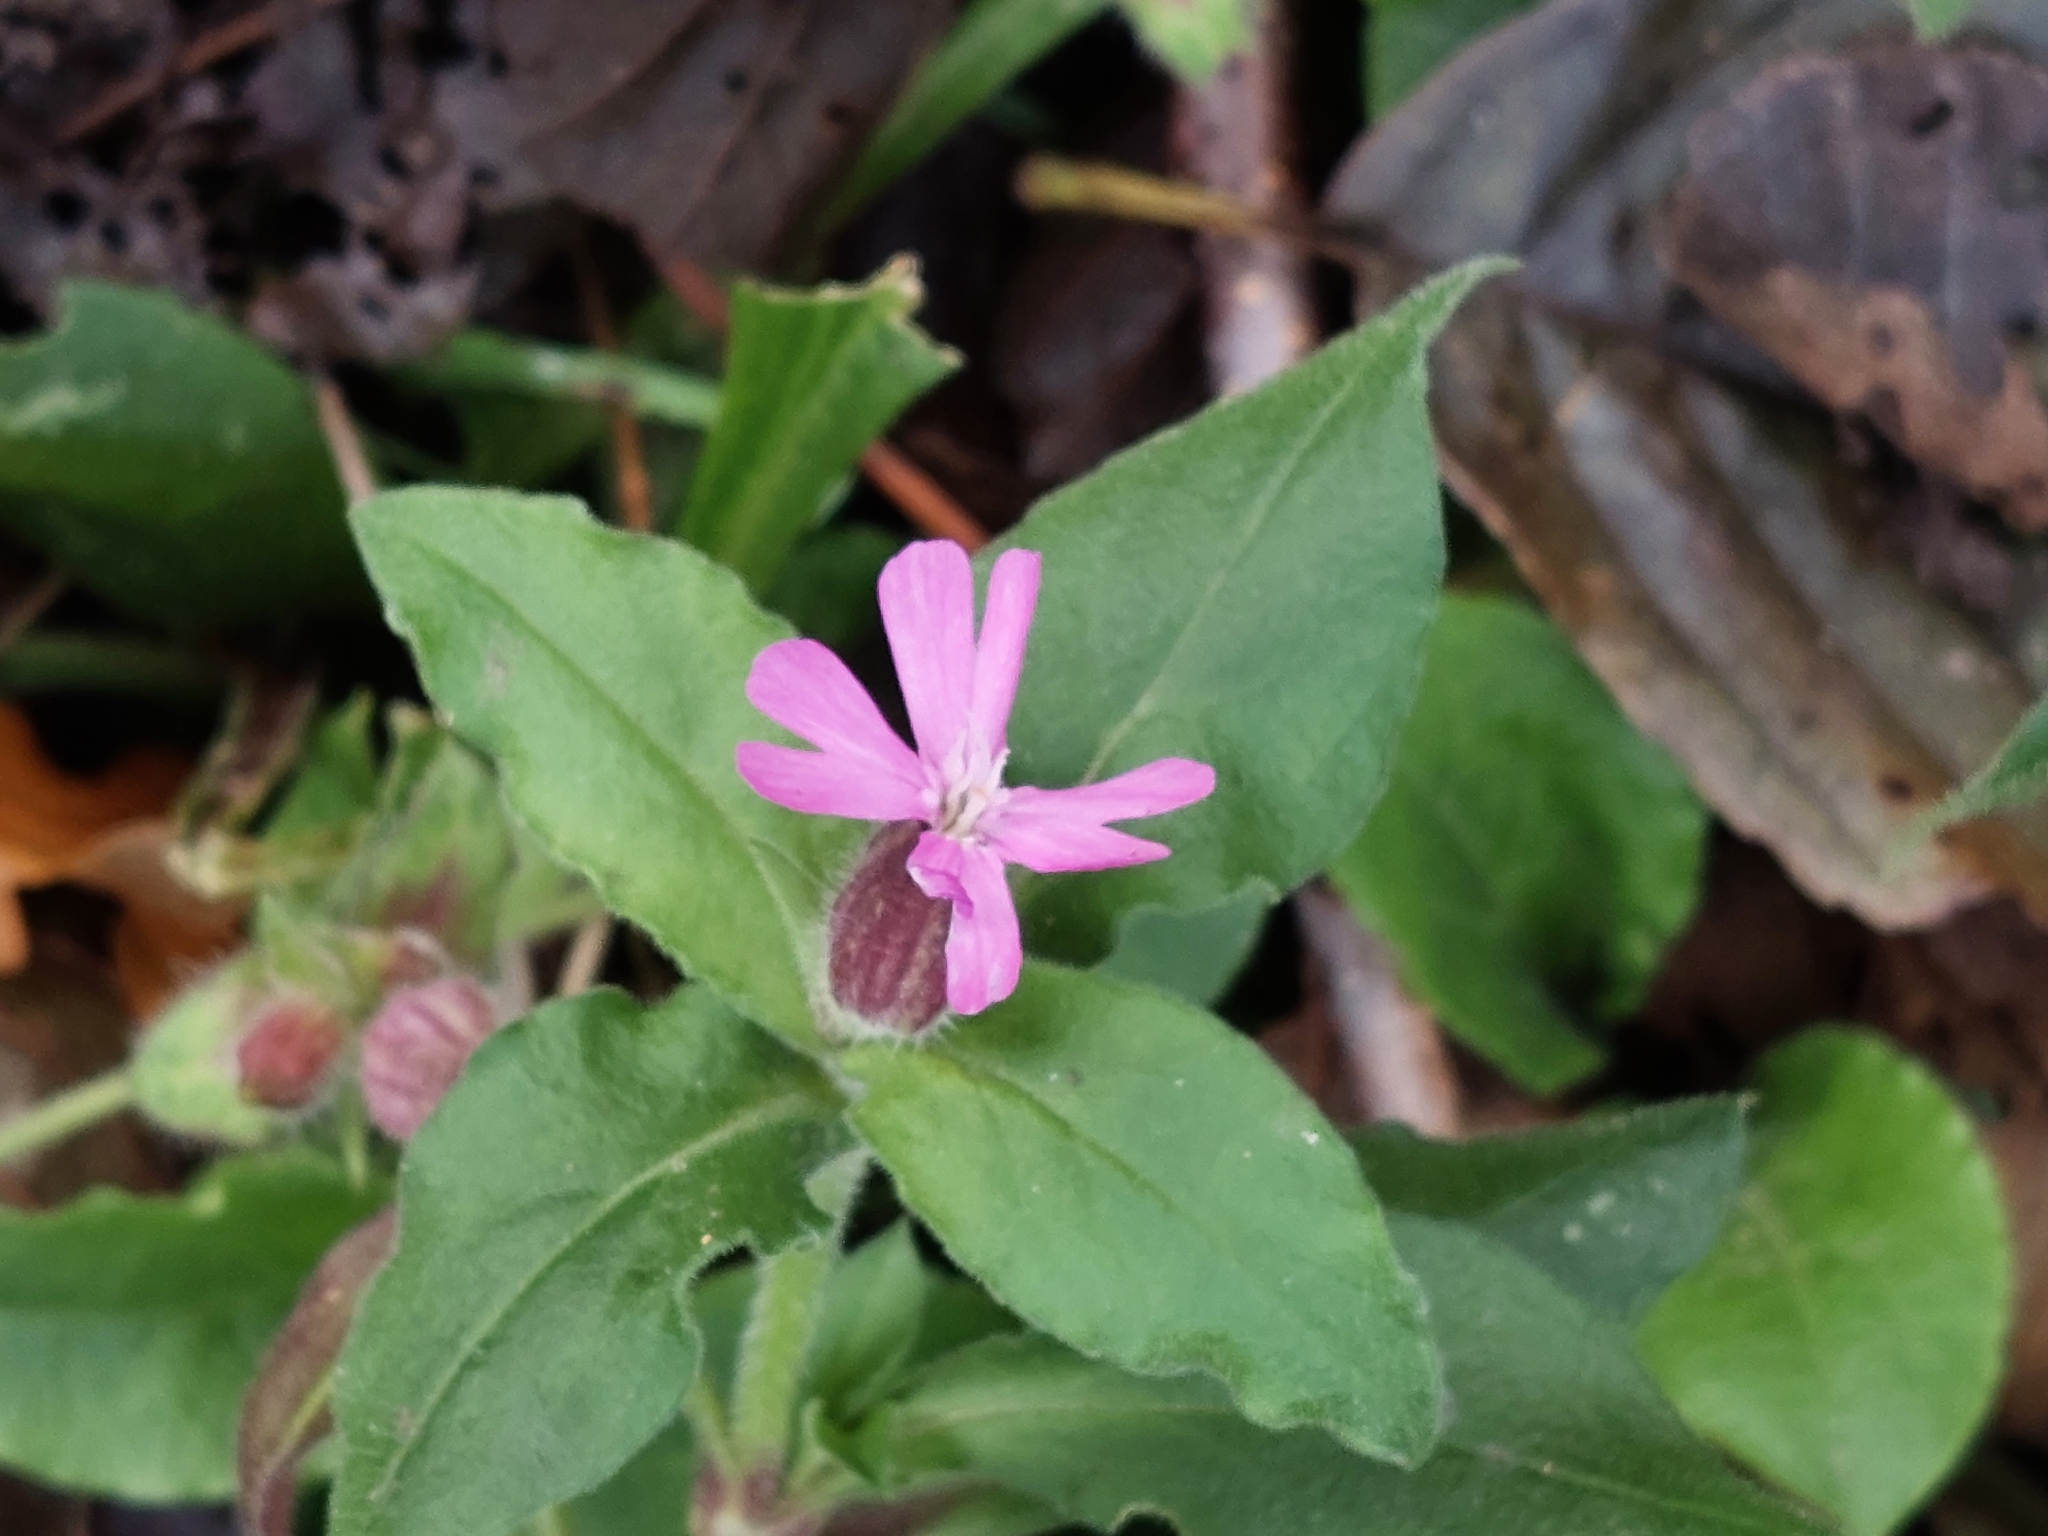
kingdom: Plantae
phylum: Tracheophyta
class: Magnoliopsida
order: Caryophyllales
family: Caryophyllaceae
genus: Silene
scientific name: Silene dioica
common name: Red campion
